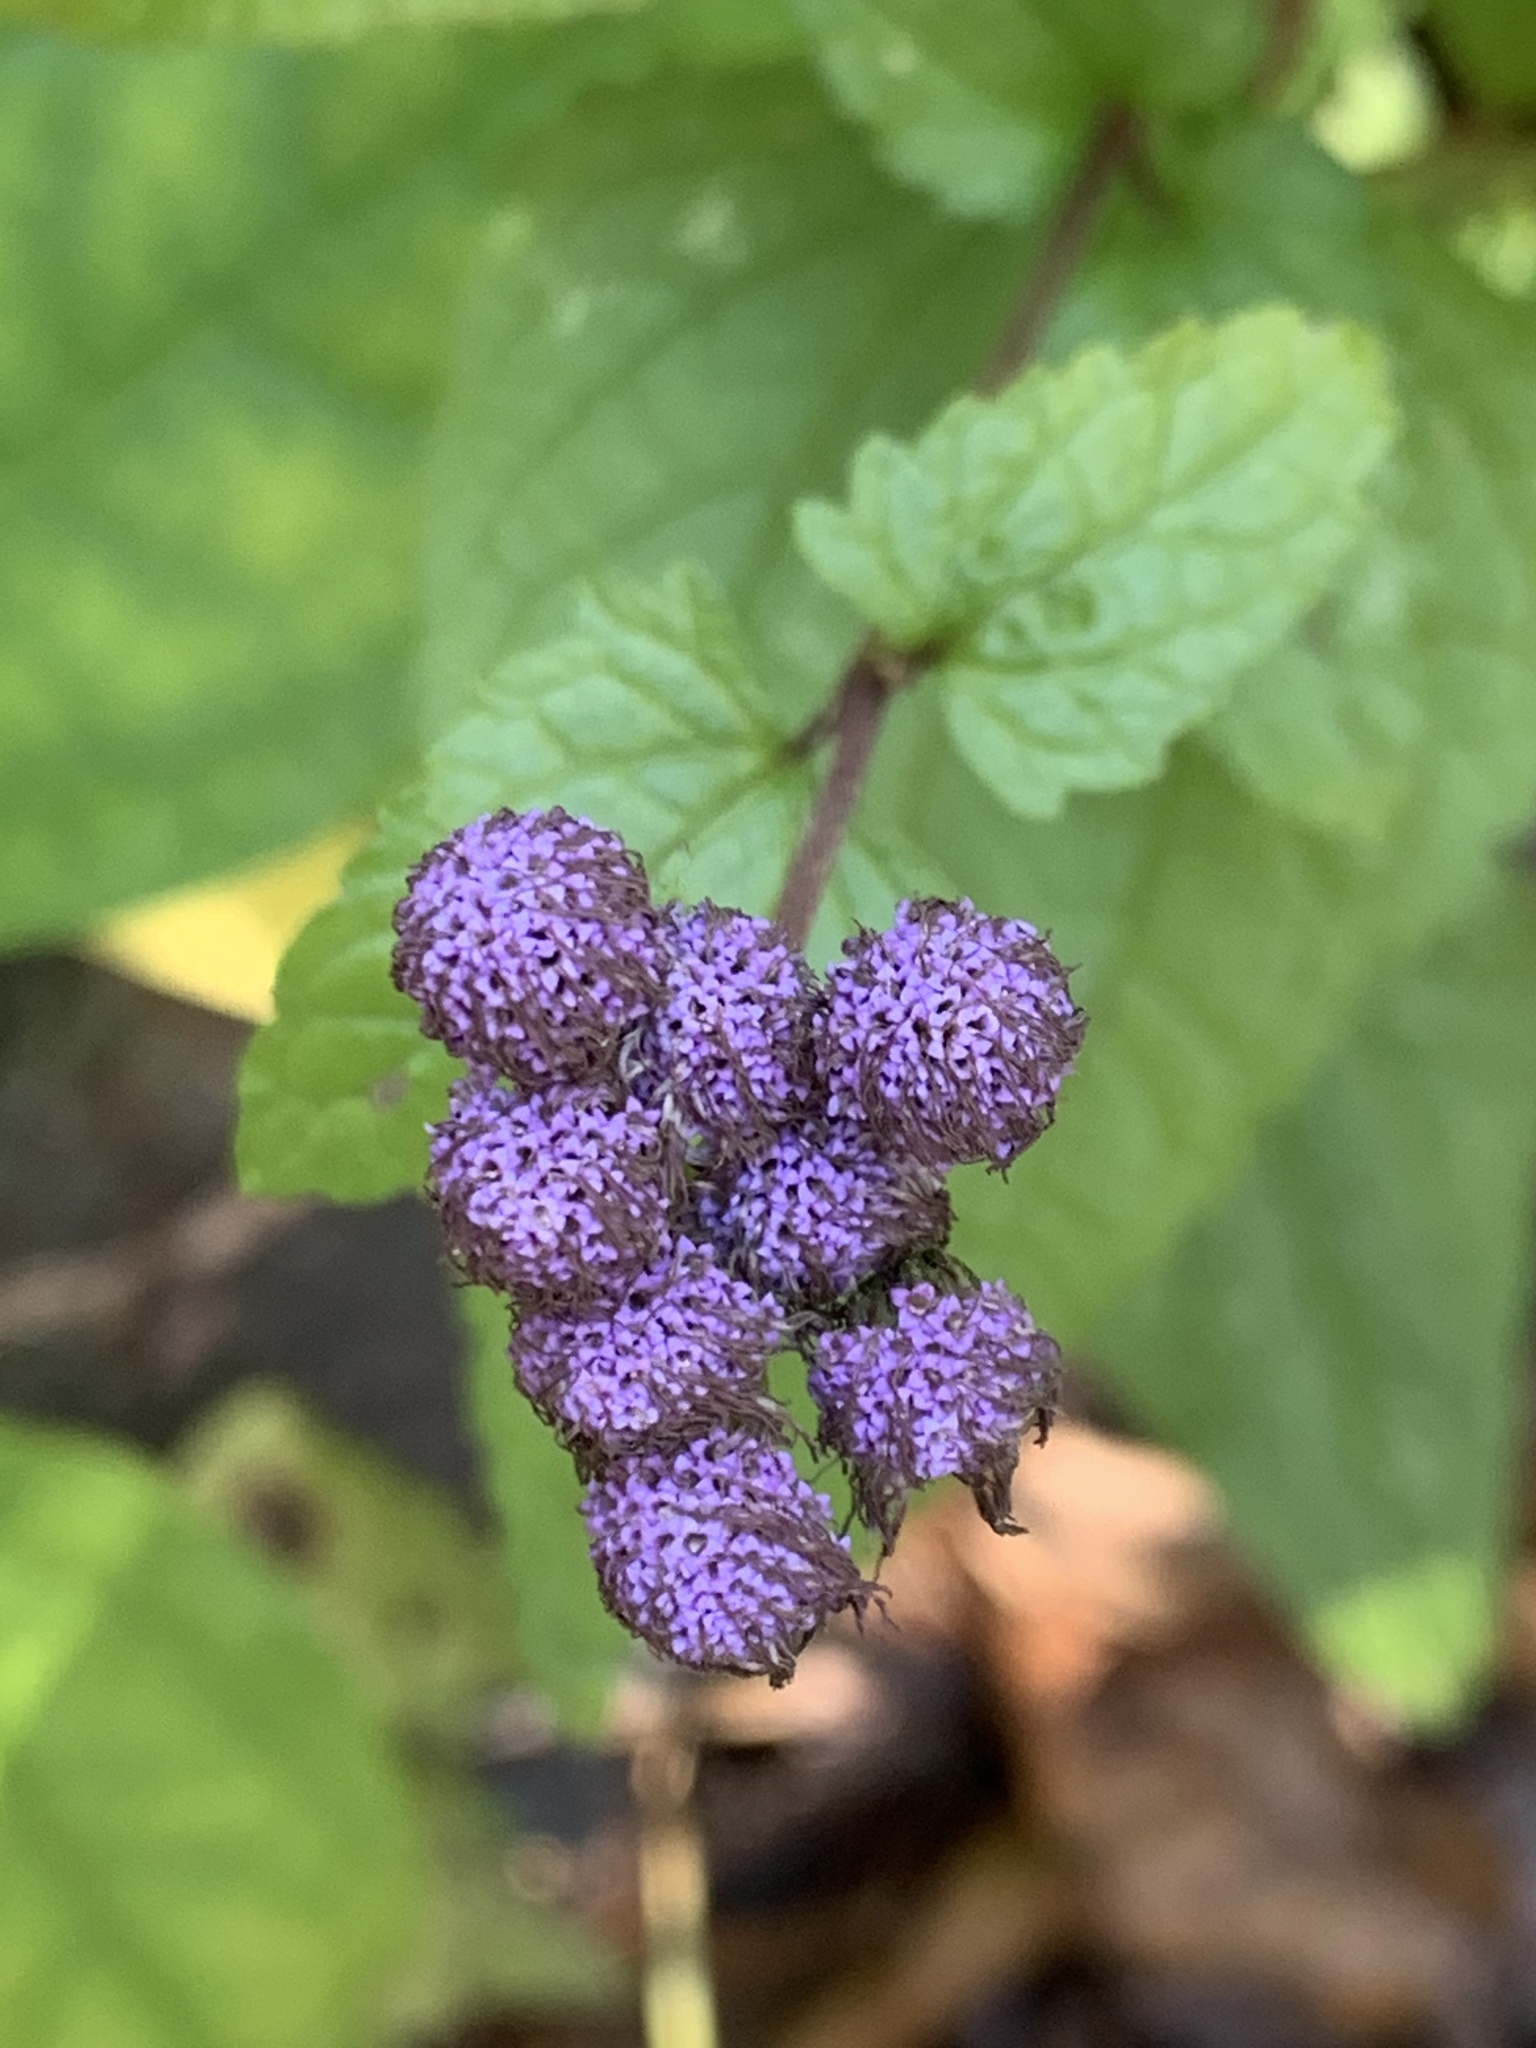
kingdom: Plantae
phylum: Tracheophyta
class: Magnoliopsida
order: Asterales
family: Asteraceae
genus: Conoclinium
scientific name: Conoclinium coelestinum
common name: Blue mistflower
